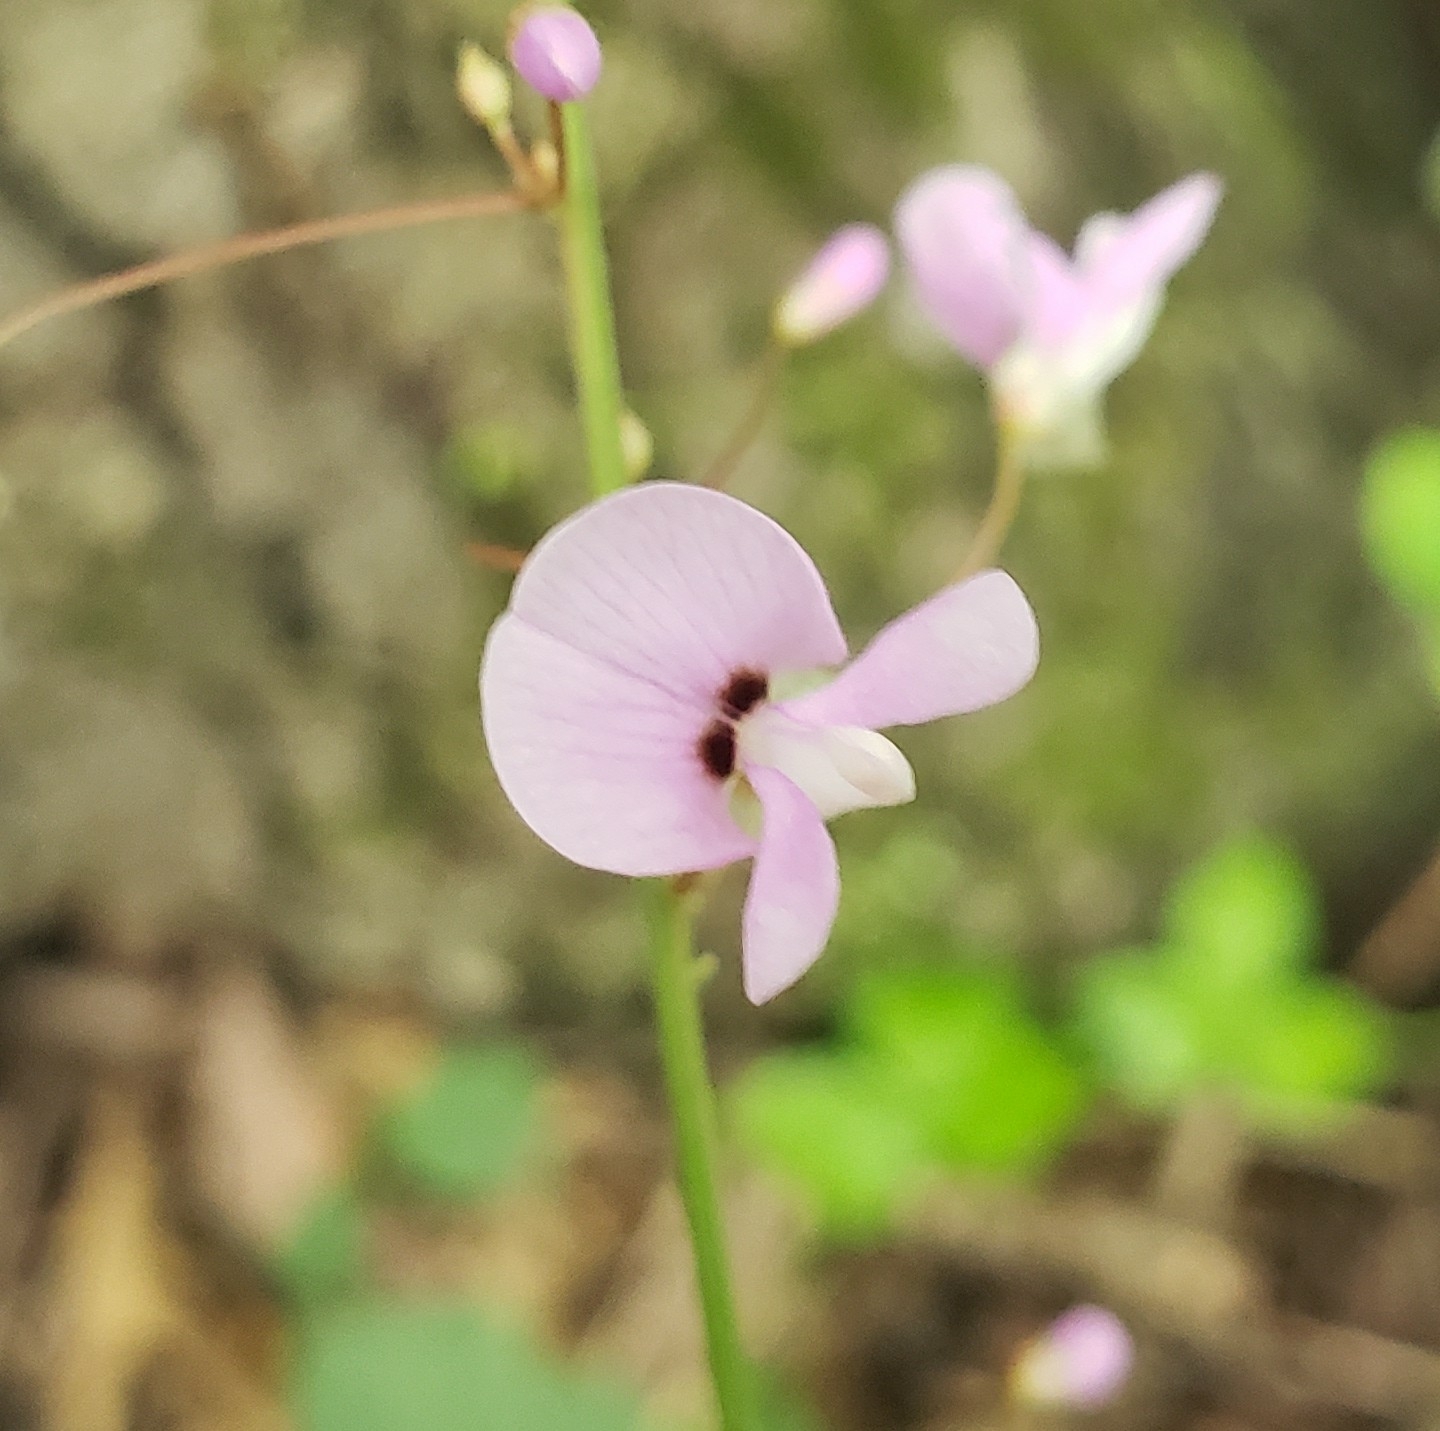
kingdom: Plantae
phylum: Tracheophyta
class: Magnoliopsida
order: Fabales
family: Fabaceae
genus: Hylodesmum
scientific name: Hylodesmum nudiflorum
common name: Bare-stemmed tick-trefoil
